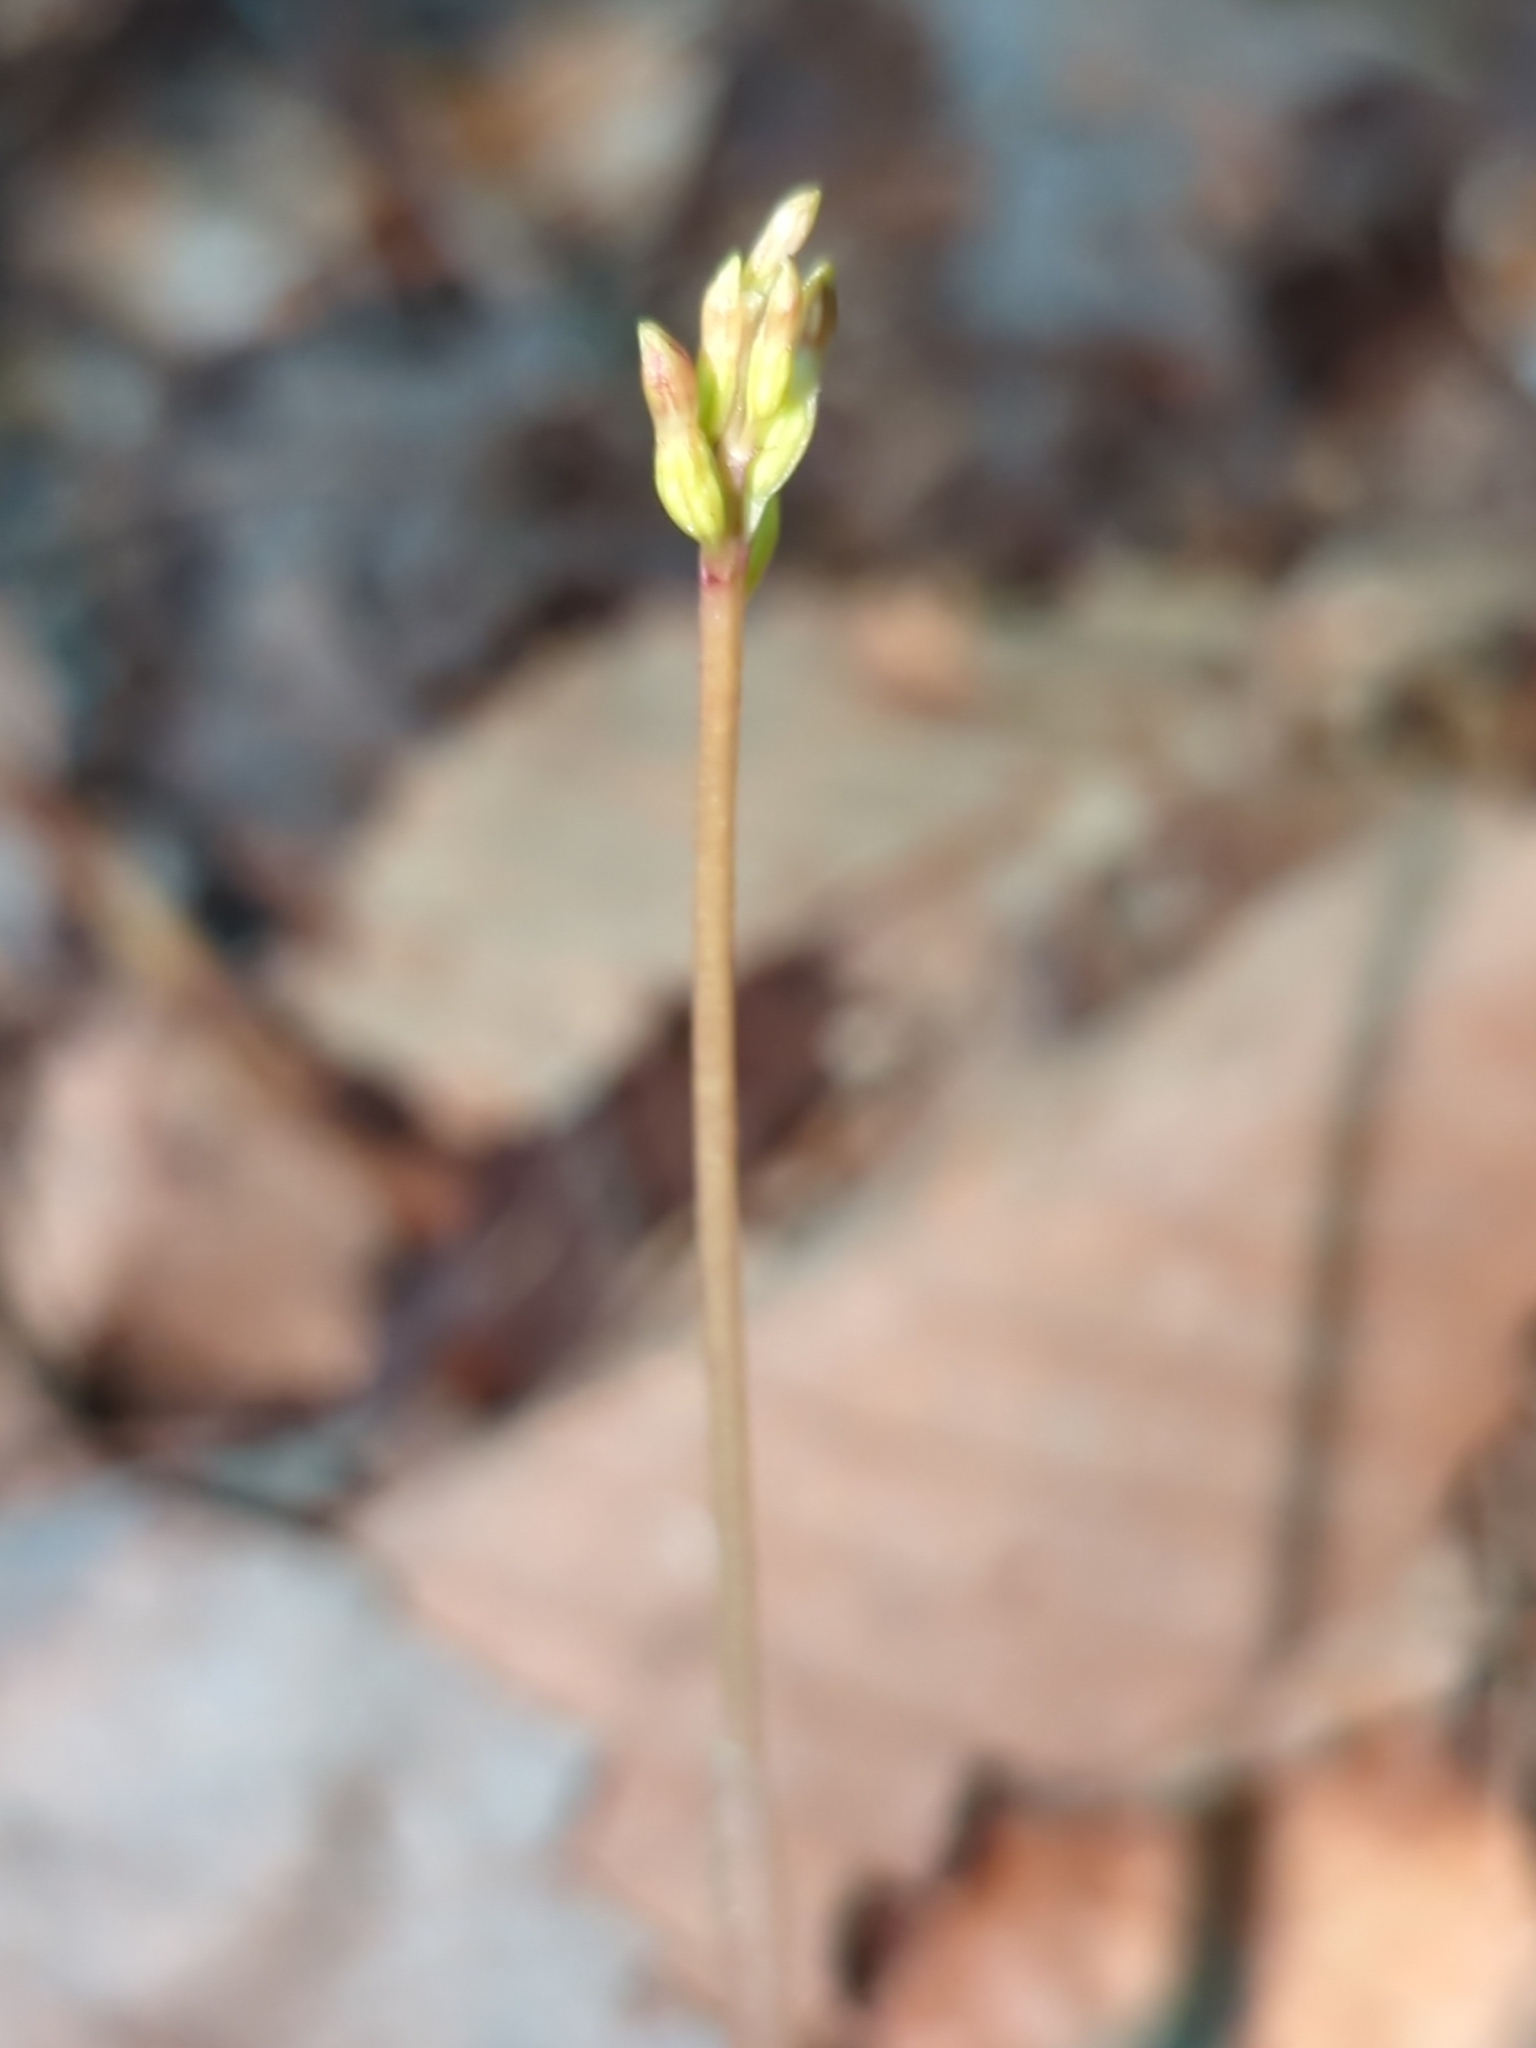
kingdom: Plantae
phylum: Tracheophyta
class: Liliopsida
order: Asparagales
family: Orchidaceae
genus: Corallorhiza
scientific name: Corallorhiza odontorhiza
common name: Autumn coralroot
